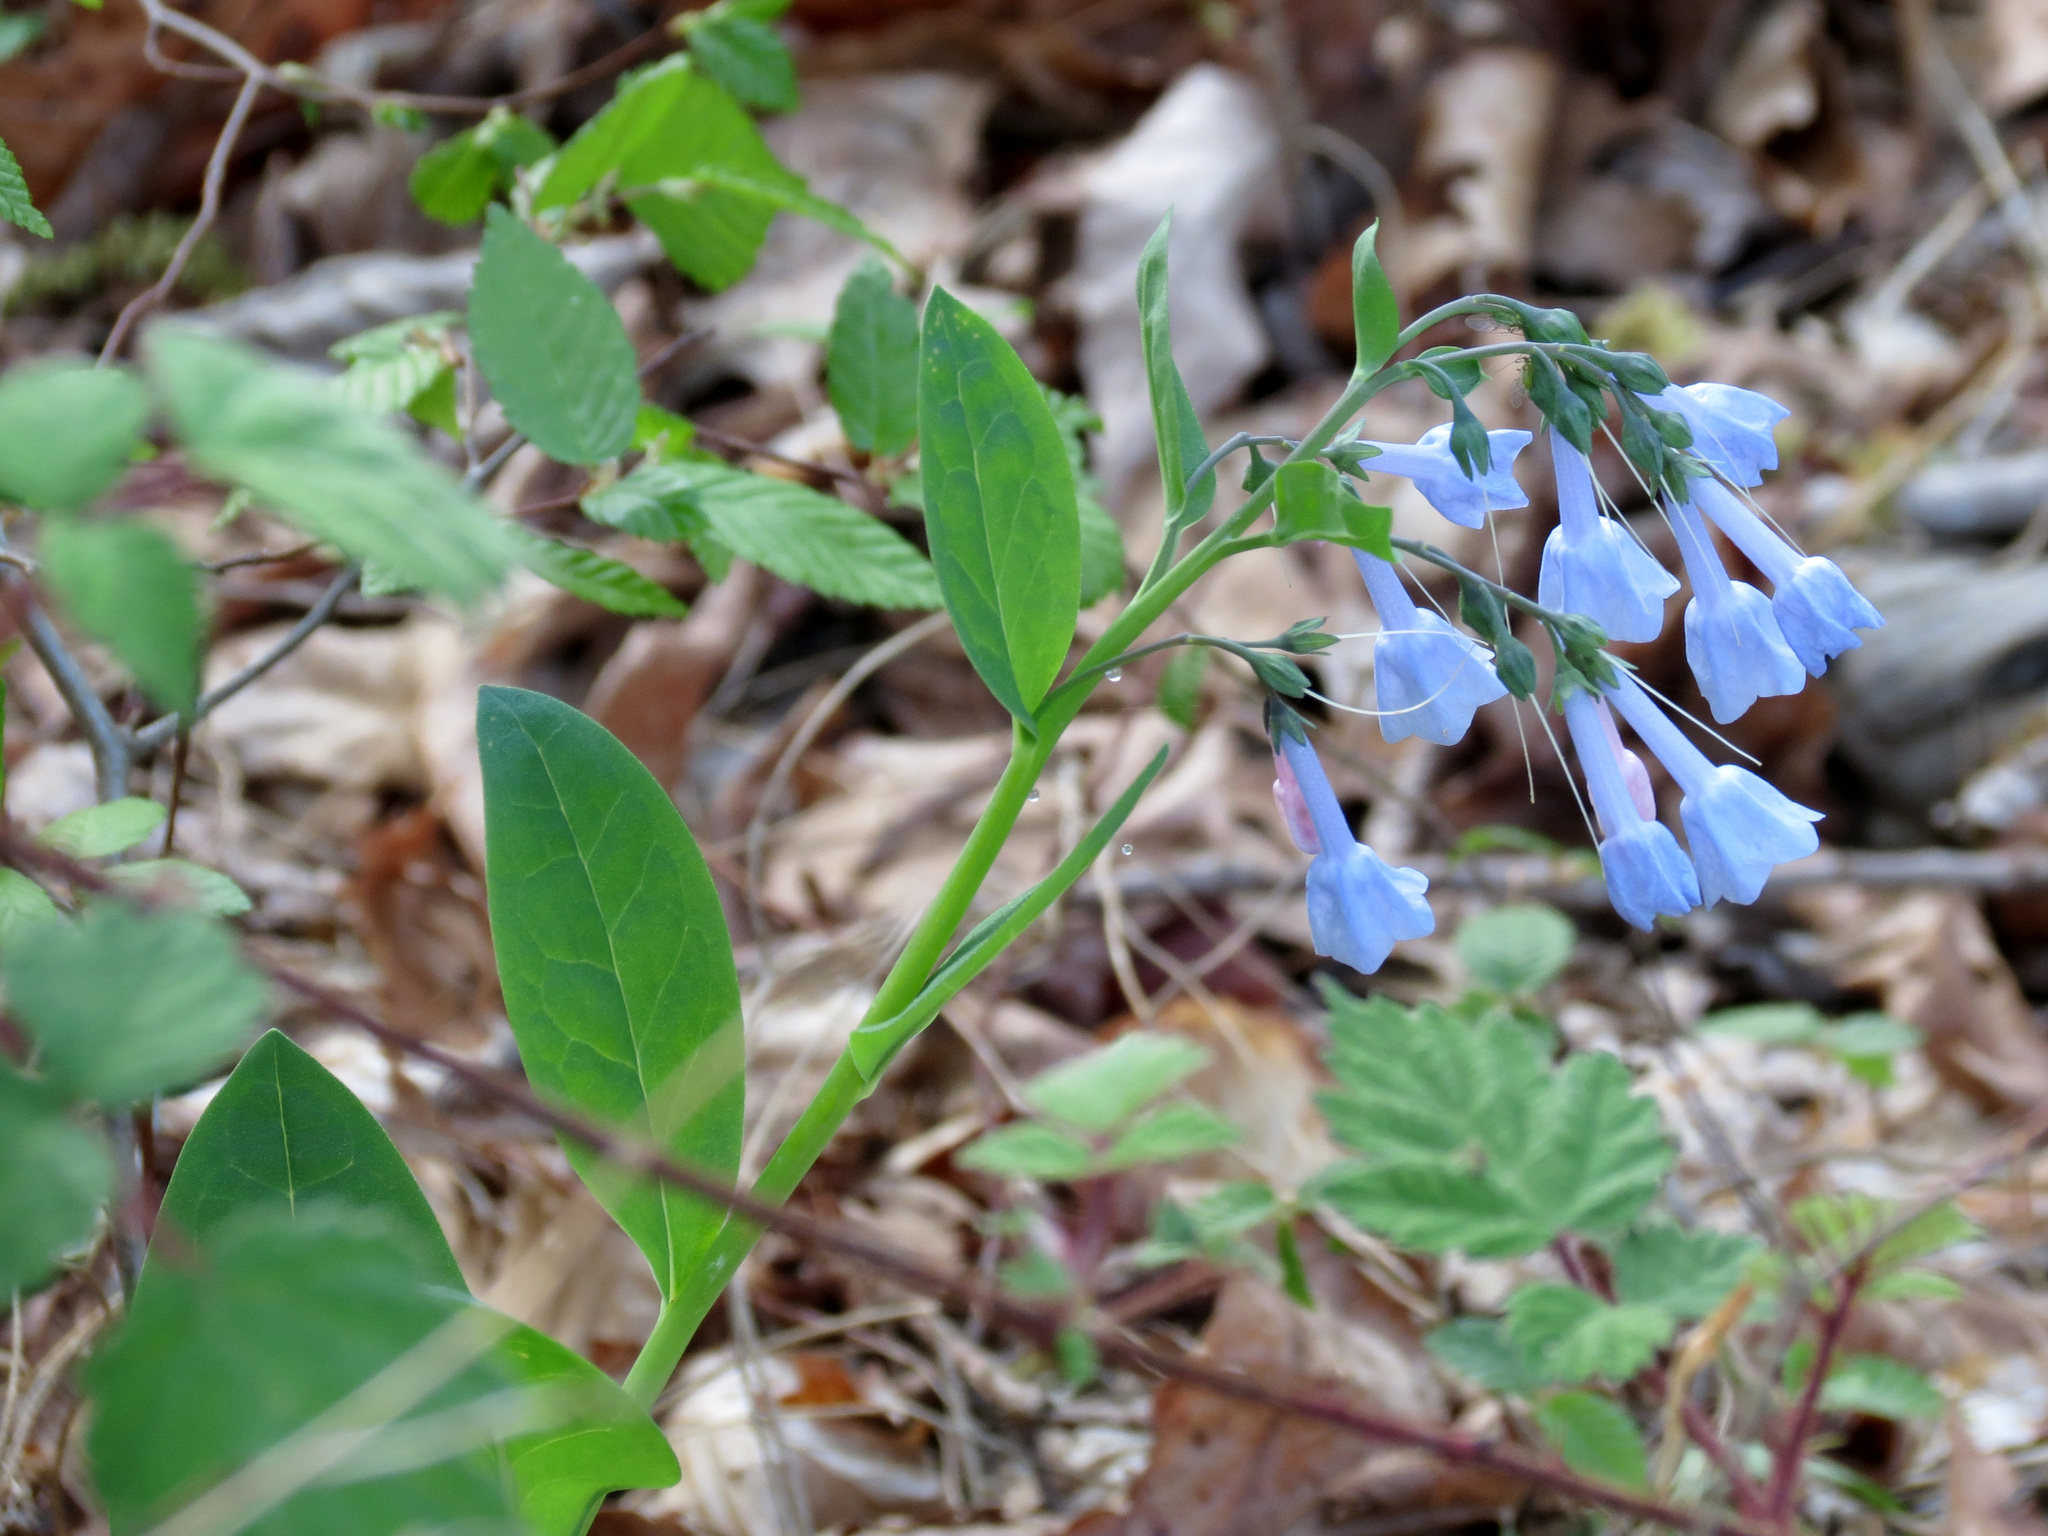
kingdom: Plantae
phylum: Tracheophyta
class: Magnoliopsida
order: Boraginales
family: Boraginaceae
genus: Mertensia
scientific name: Mertensia virginica
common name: Virginia bluebells
